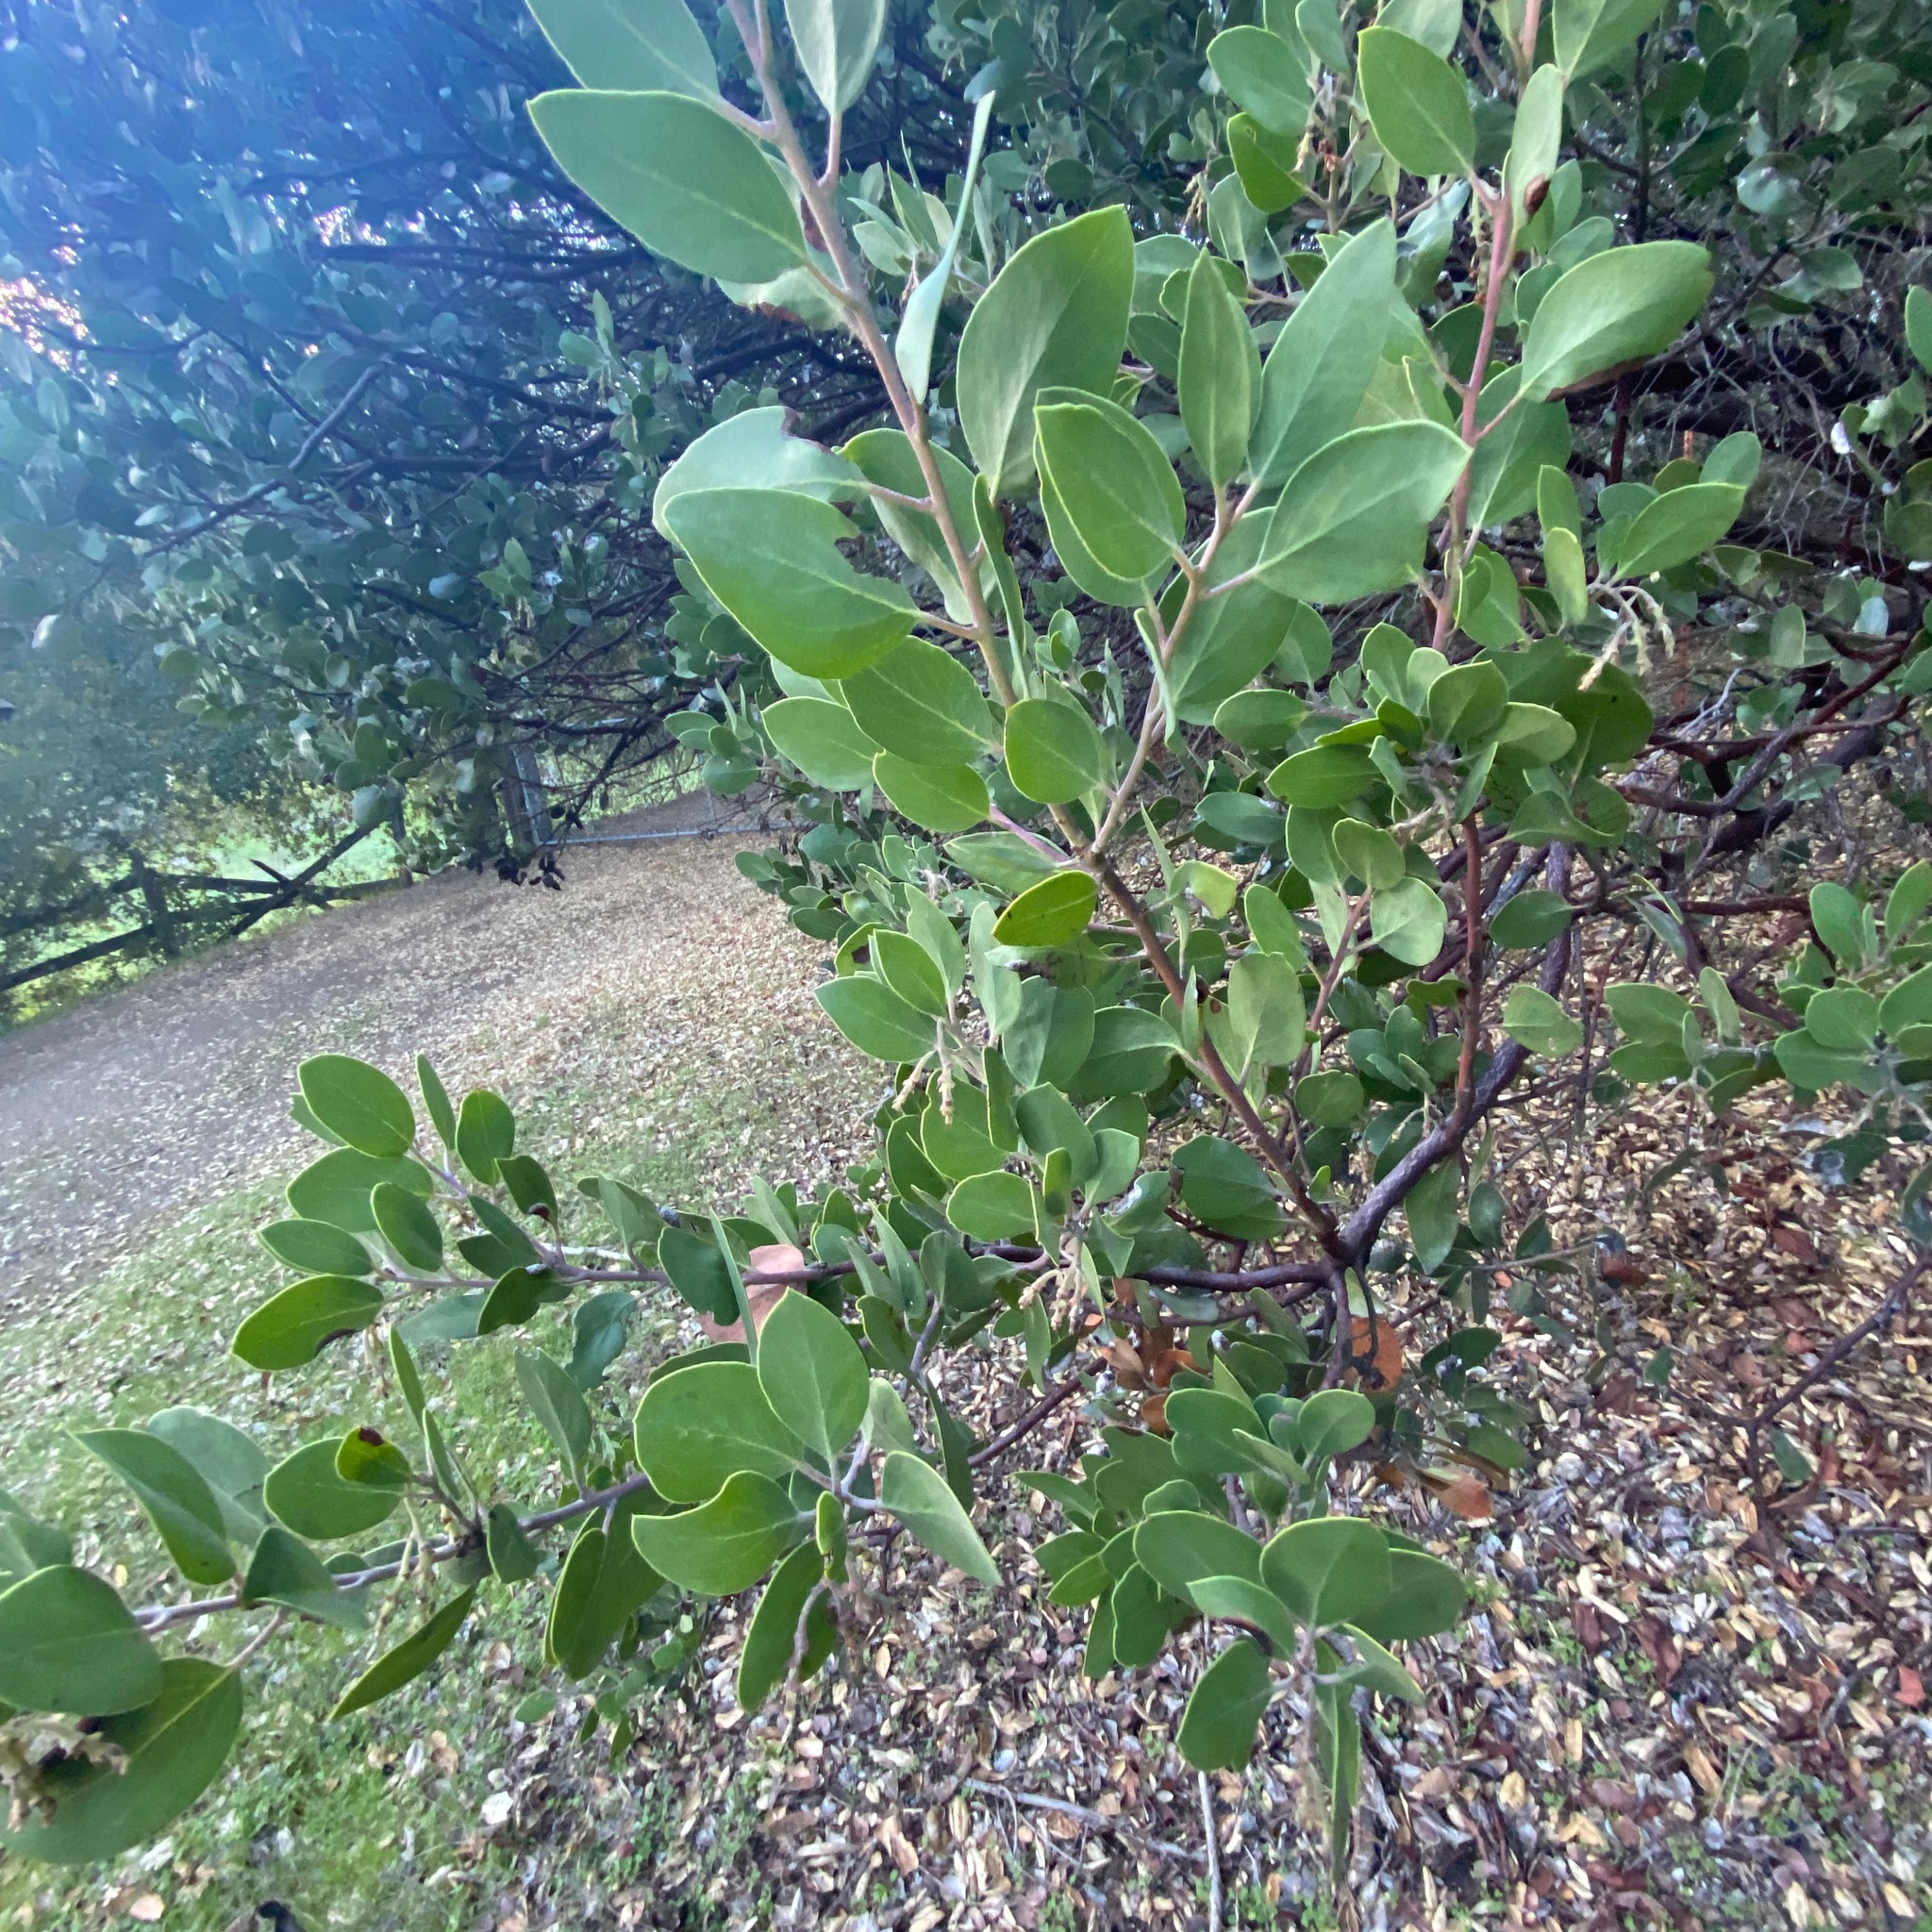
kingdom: Plantae
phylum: Tracheophyta
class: Magnoliopsida
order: Ericales
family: Ericaceae
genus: Arctostaphylos
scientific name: Arctostaphylos manzanita
